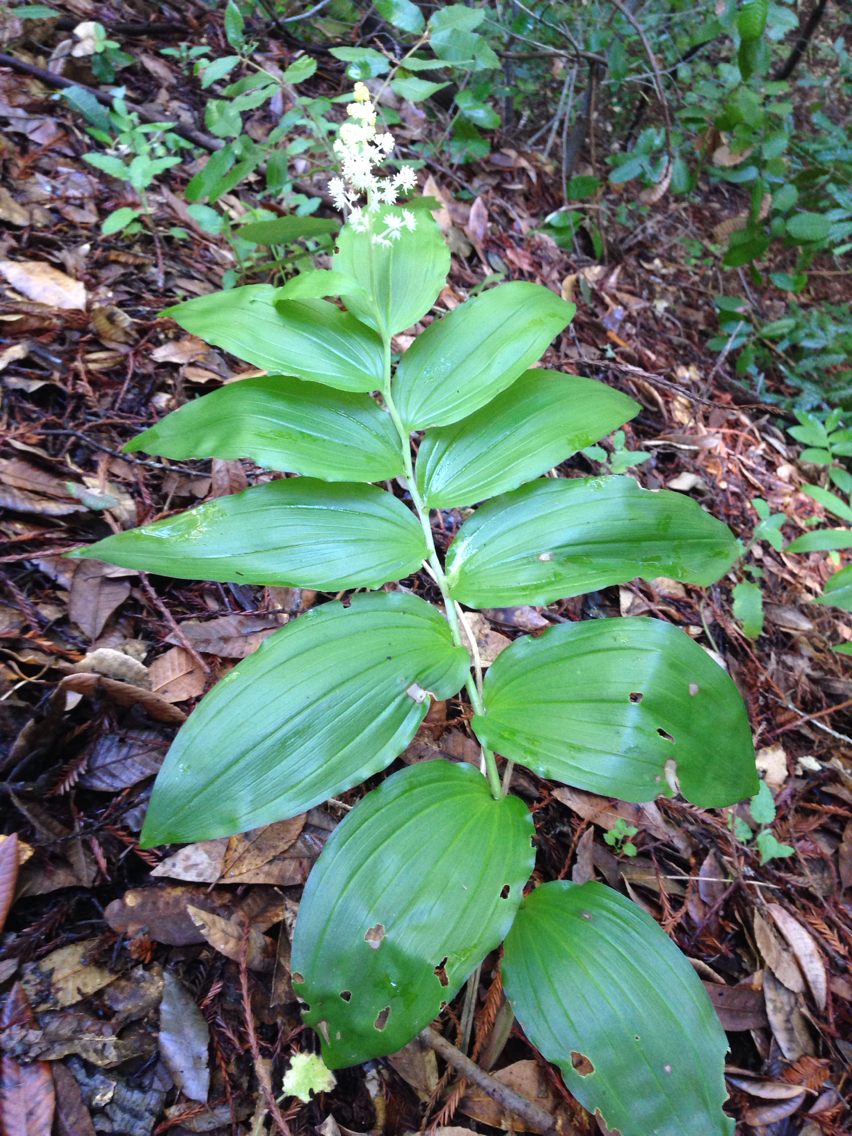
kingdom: Plantae
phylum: Tracheophyta
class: Liliopsida
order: Asparagales
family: Asparagaceae
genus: Maianthemum
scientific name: Maianthemum racemosum
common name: False spikenard
